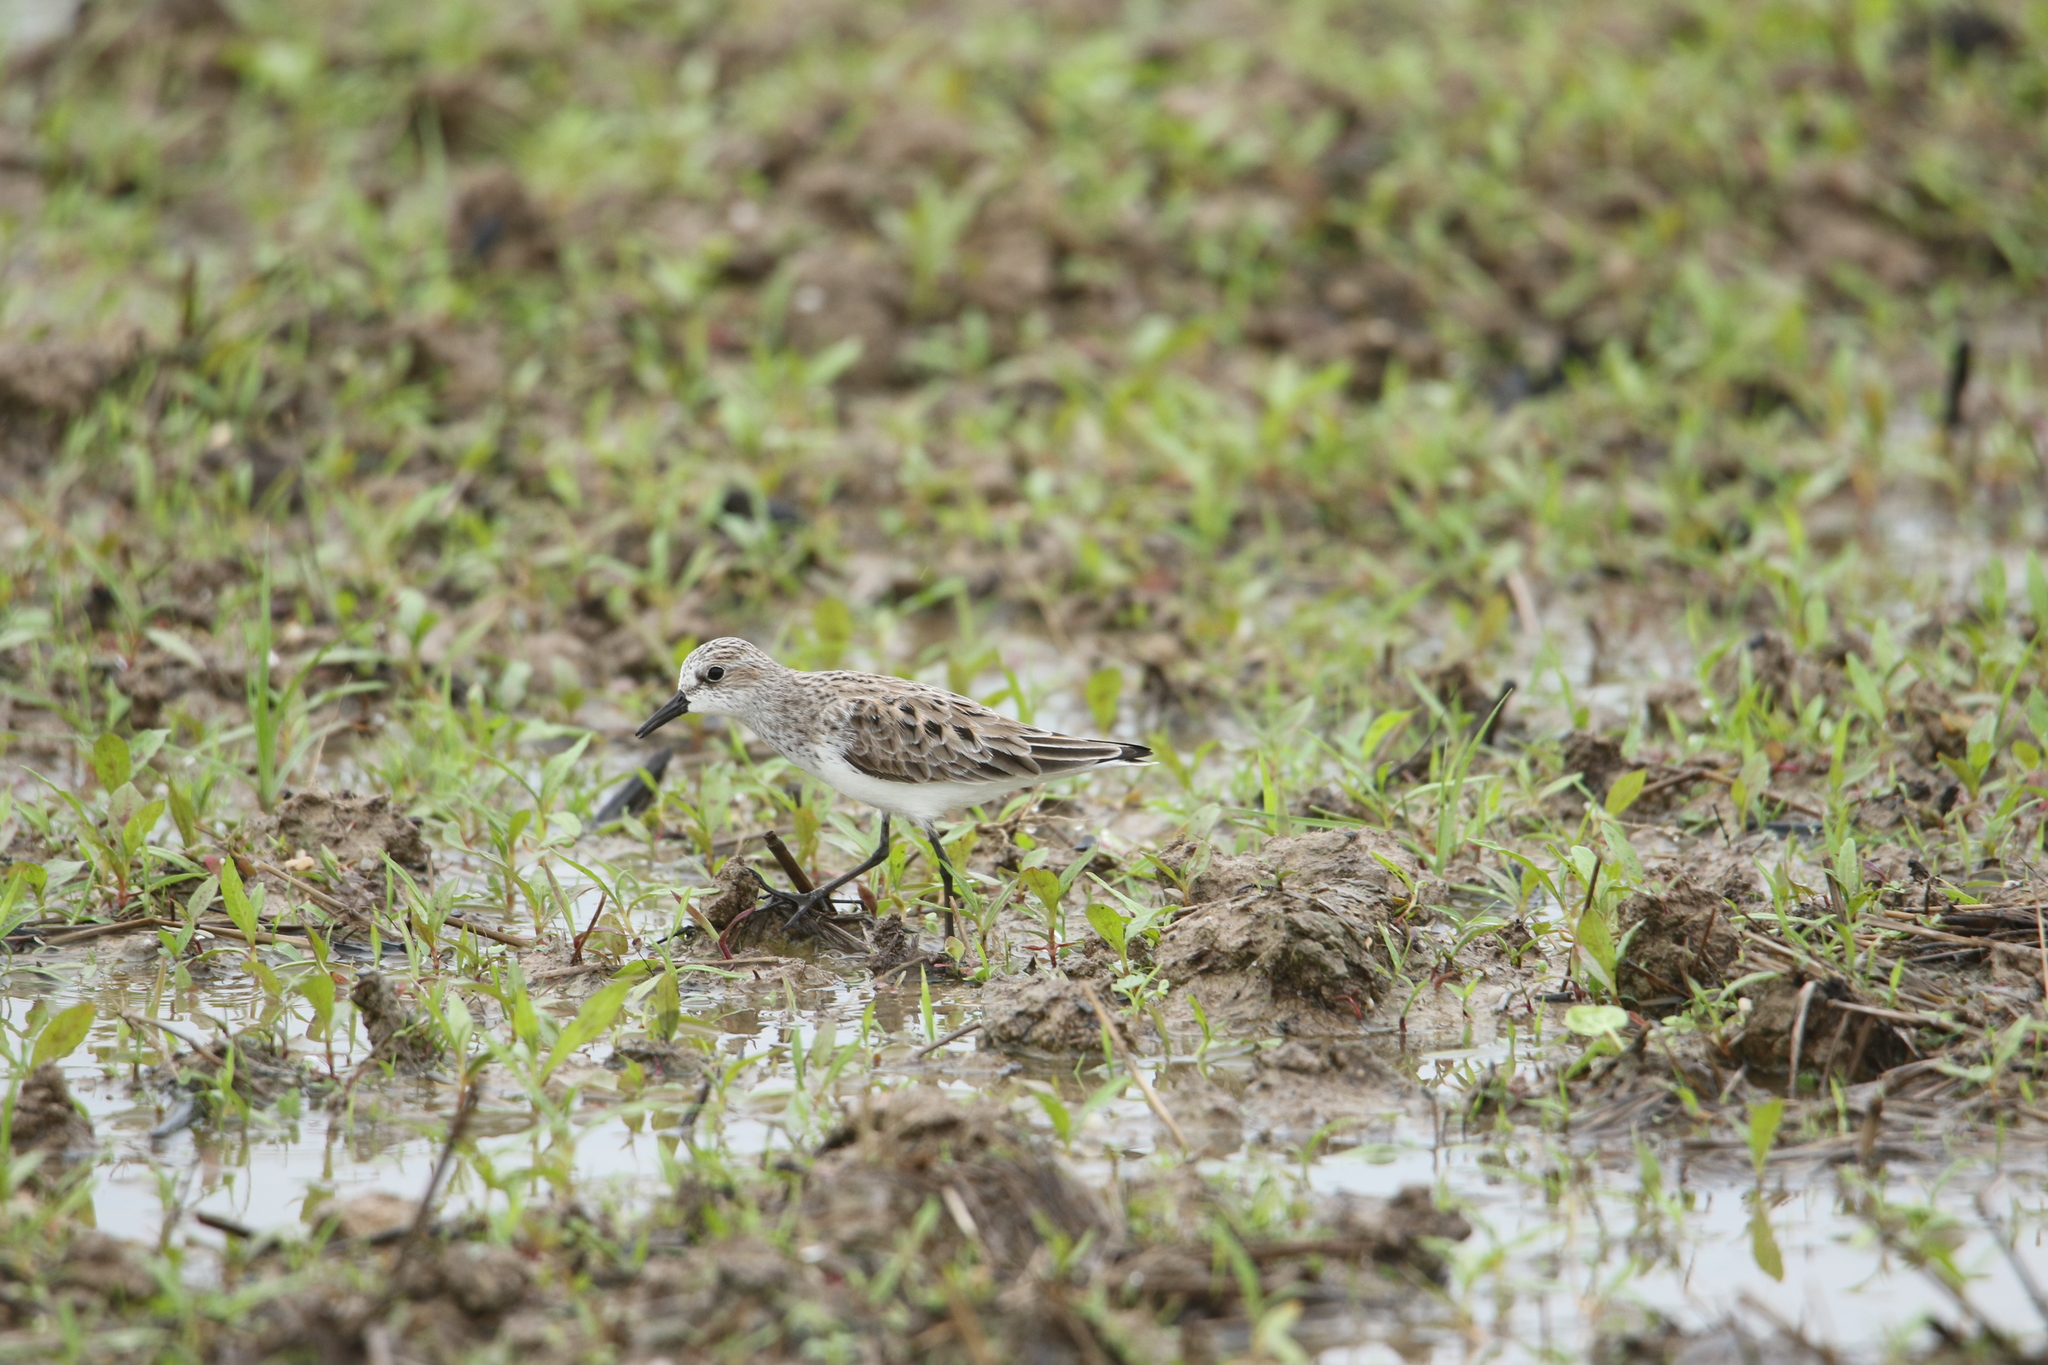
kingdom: Animalia
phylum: Chordata
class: Aves
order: Charadriiformes
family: Scolopacidae
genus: Calidris
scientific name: Calidris pusilla
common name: Semipalmated sandpiper
